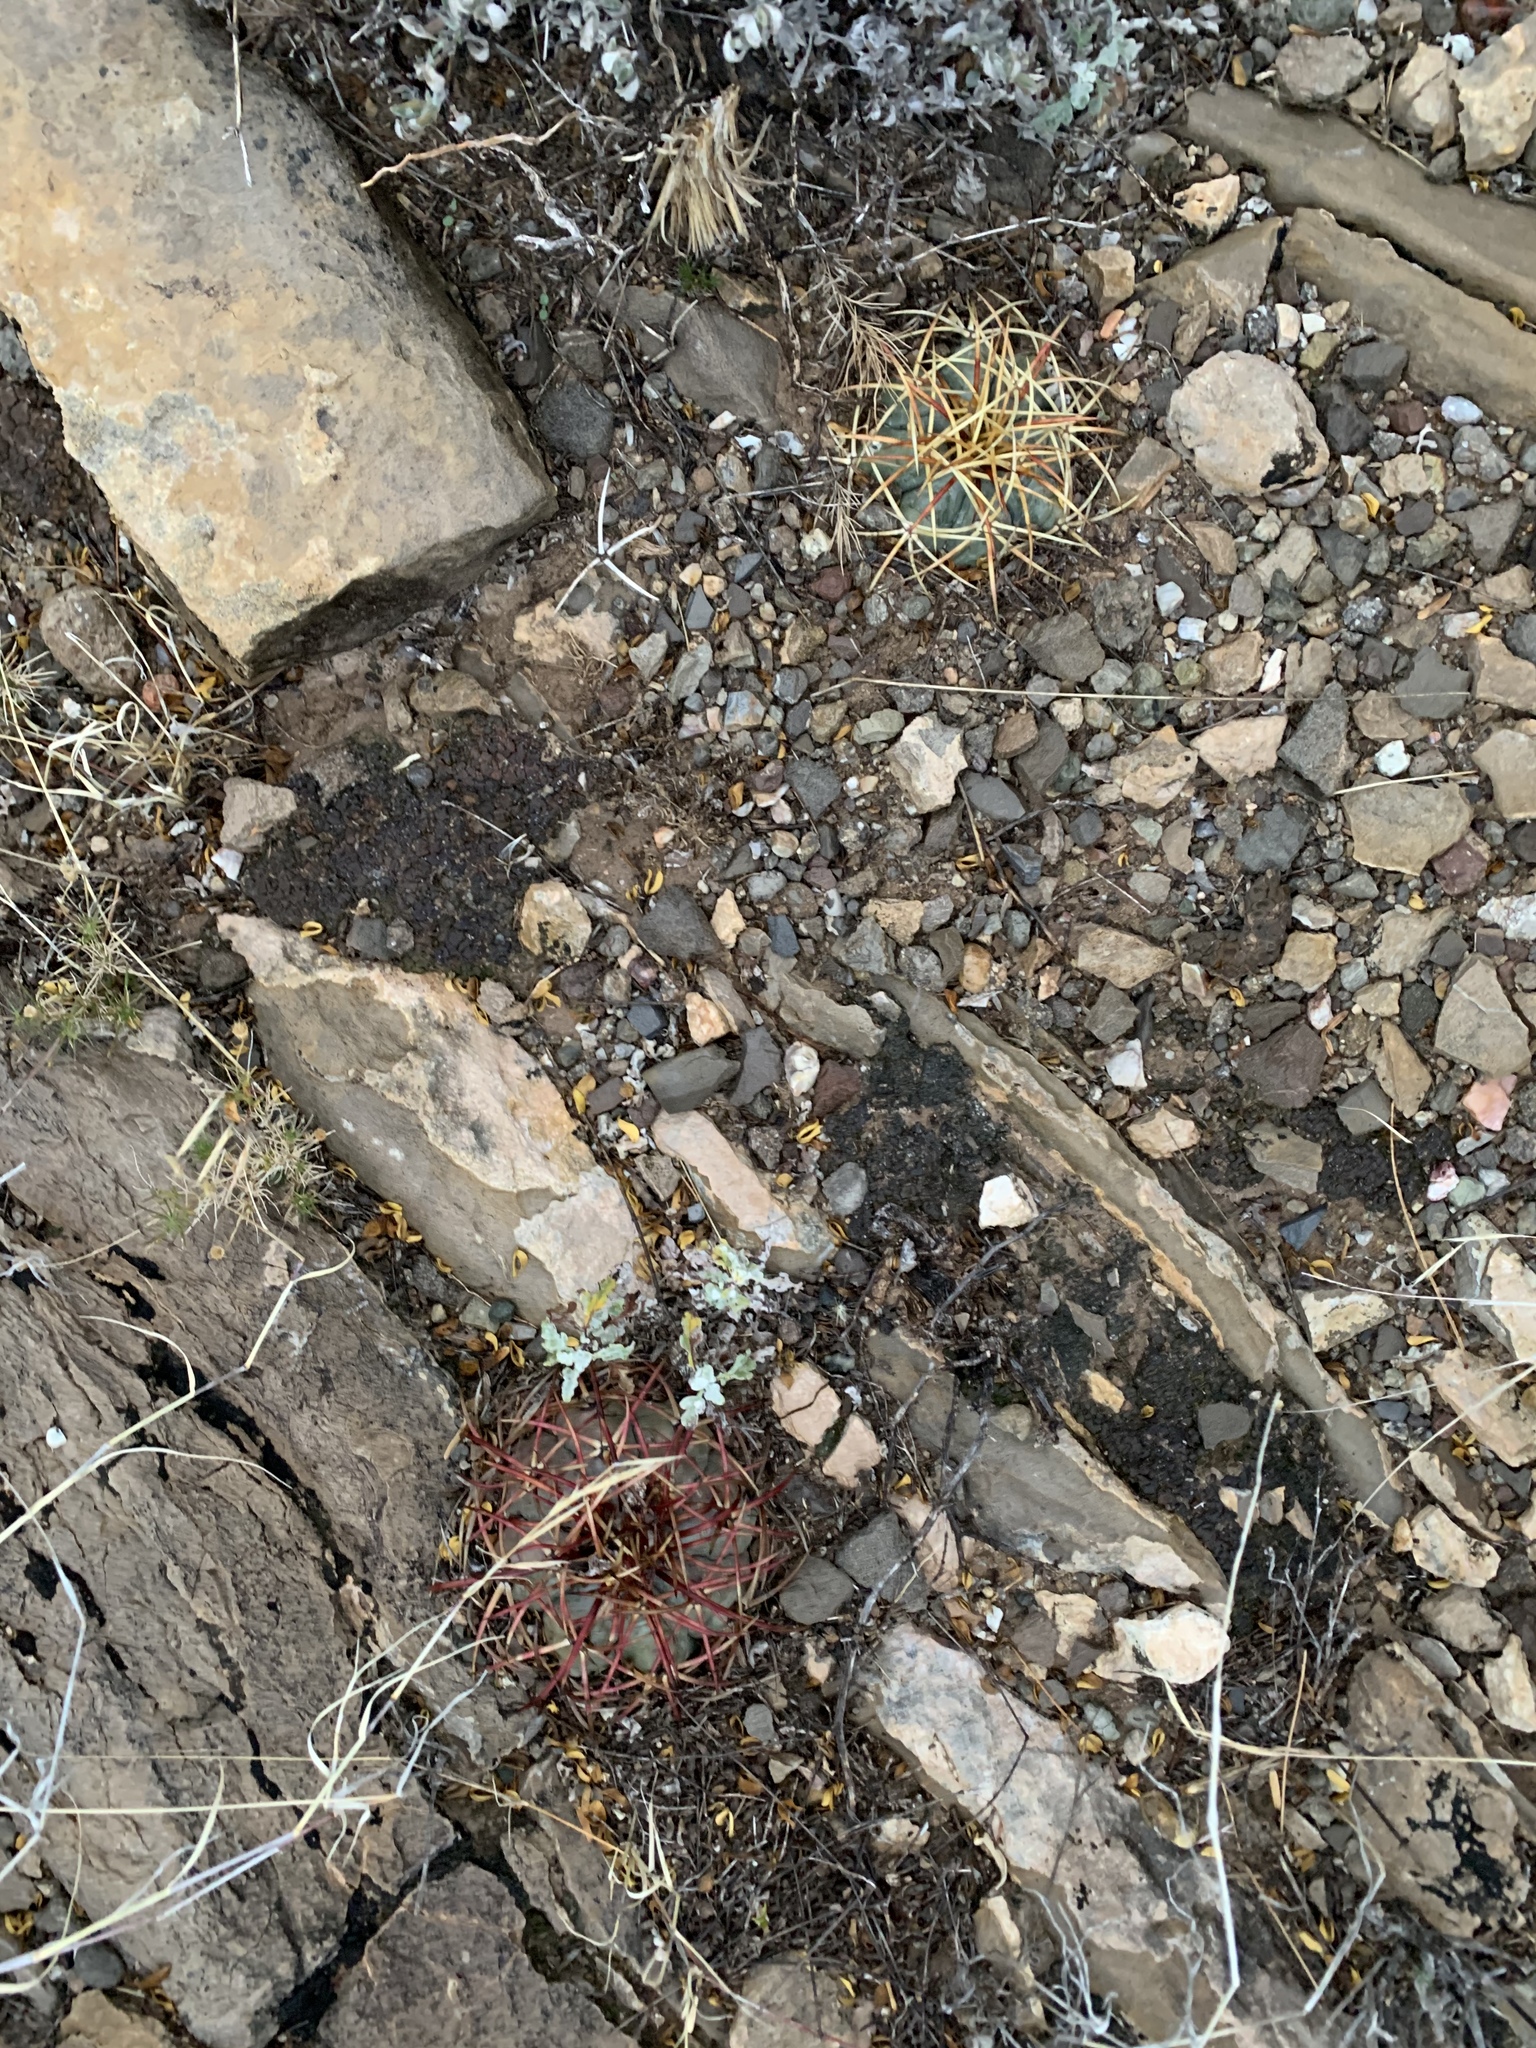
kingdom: Plantae
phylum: Tracheophyta
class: Magnoliopsida
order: Caryophyllales
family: Cactaceae
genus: Echinocactus
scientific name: Echinocactus horizonthalonius
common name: Devilshead
